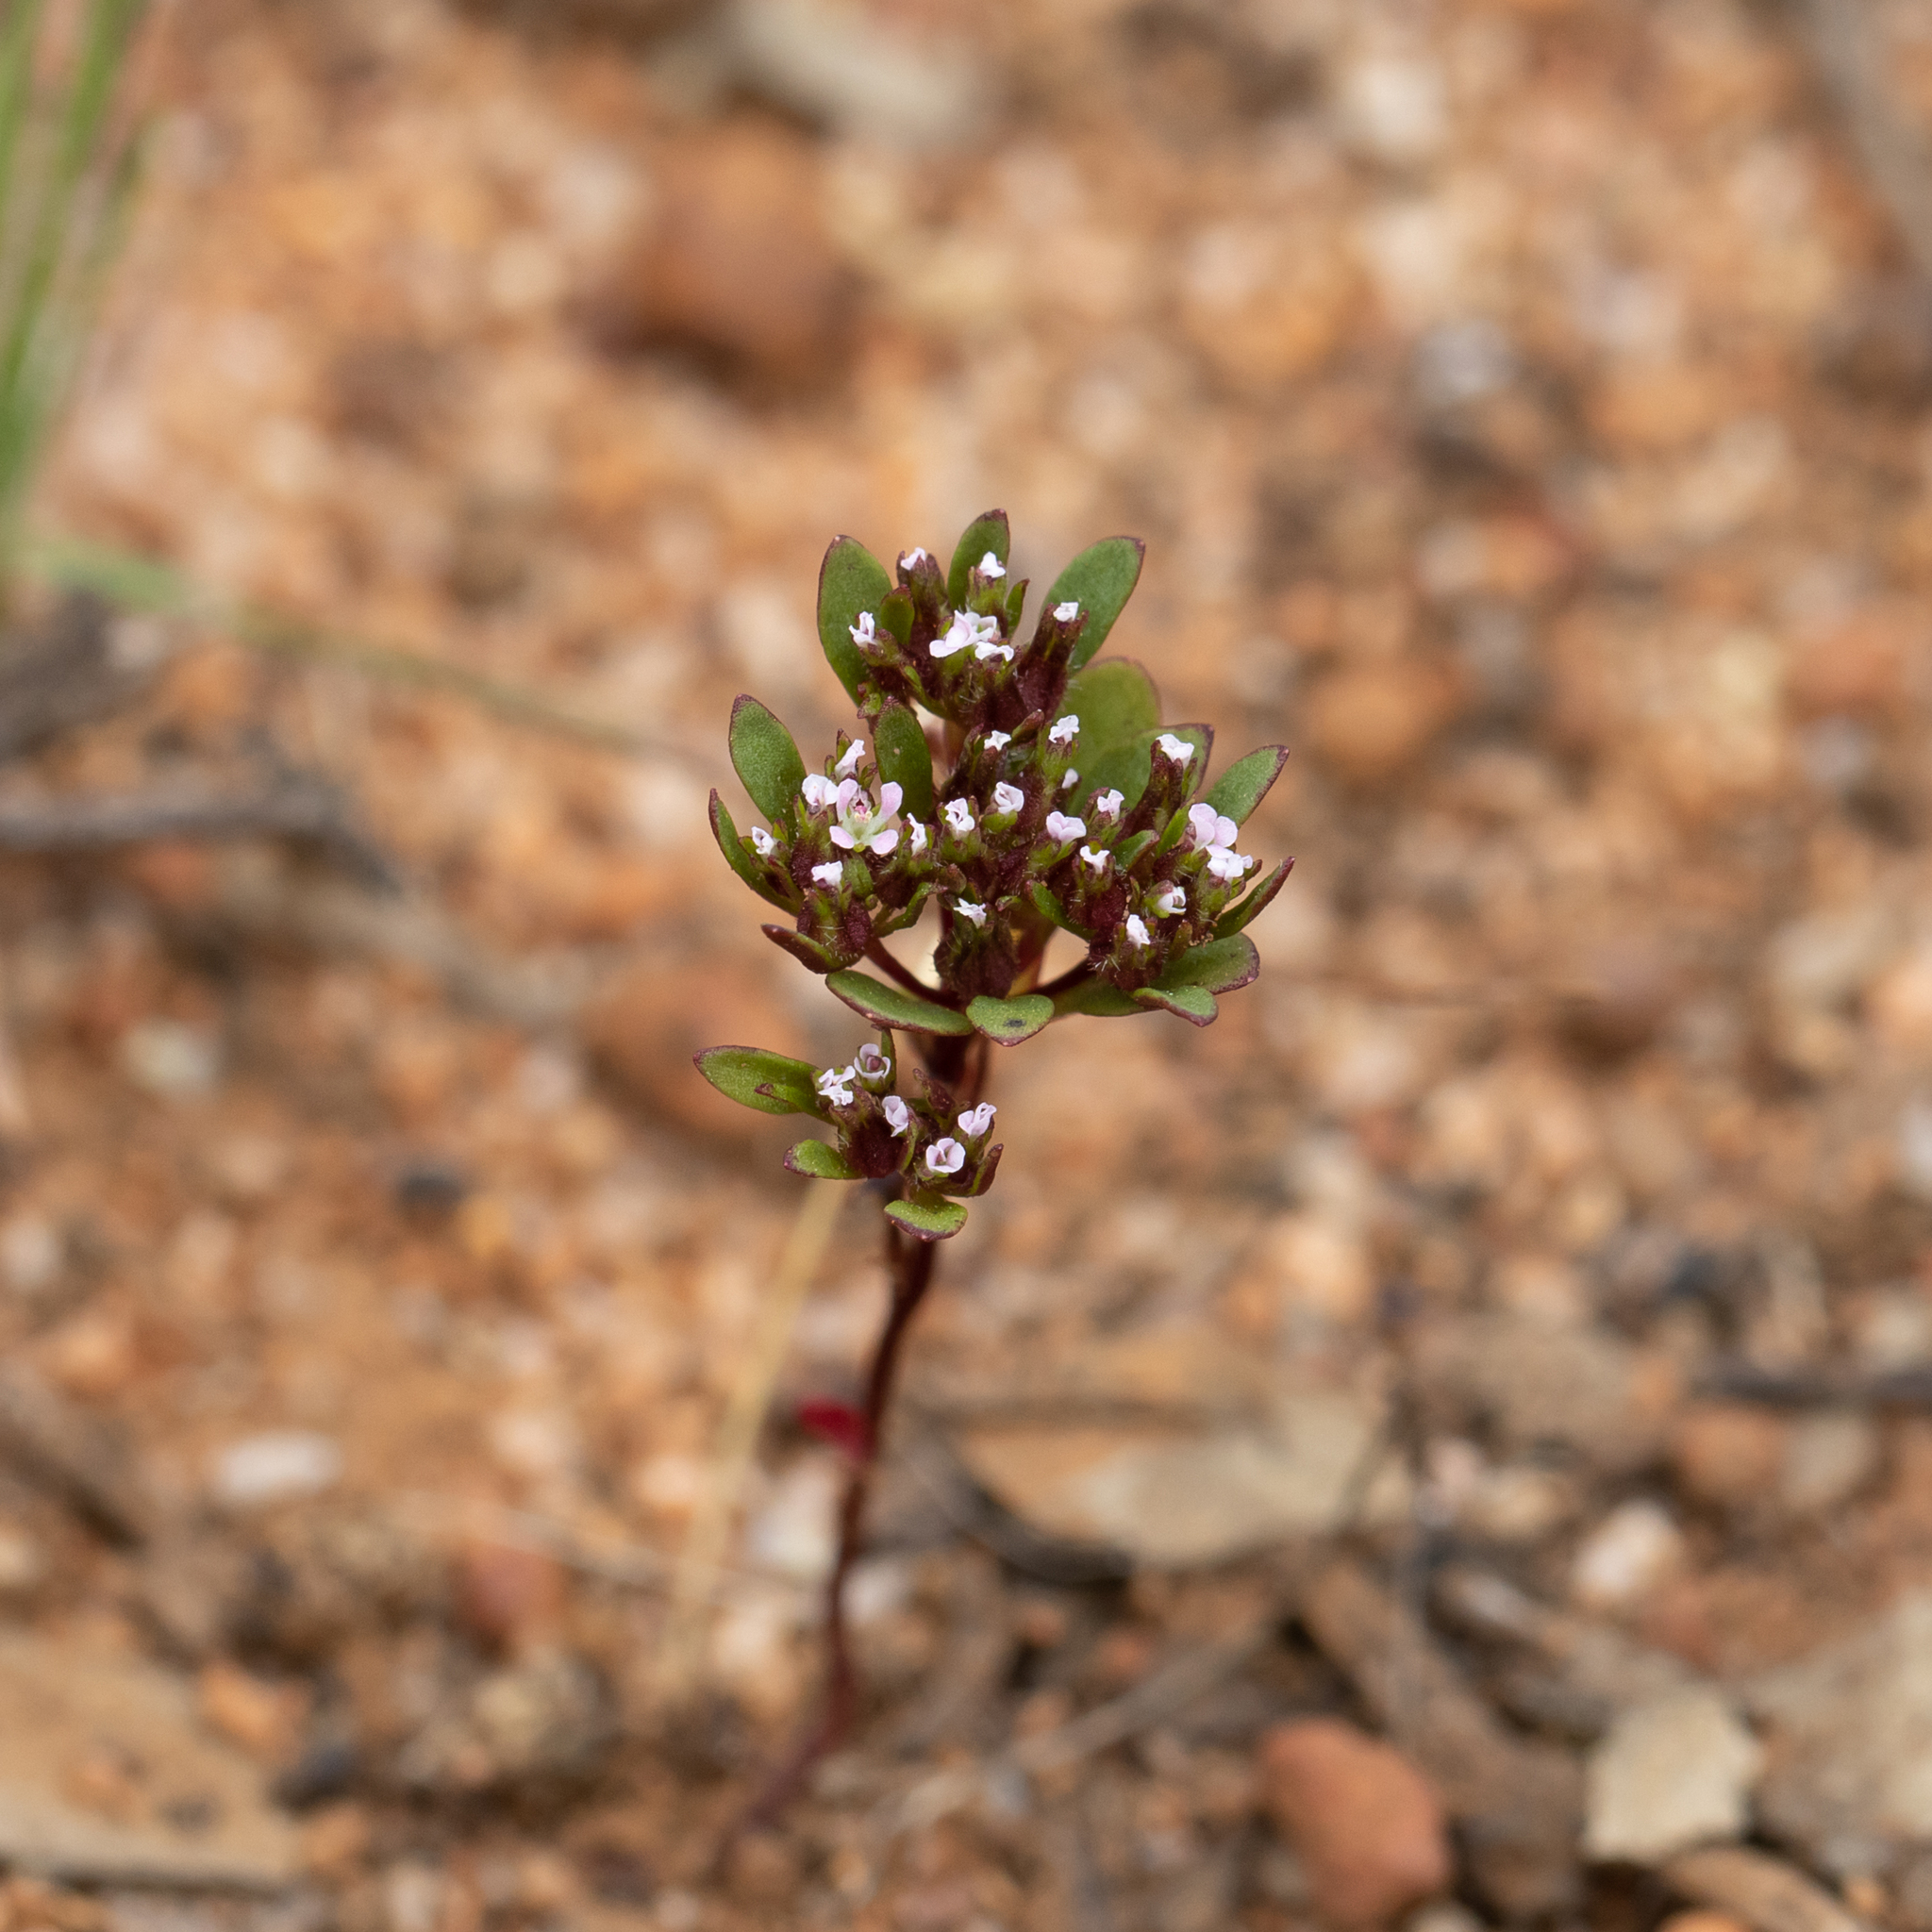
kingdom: Plantae
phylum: Tracheophyta
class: Magnoliopsida
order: Asterales
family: Stylidiaceae
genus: Levenhookia
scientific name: Levenhookia pusilla
